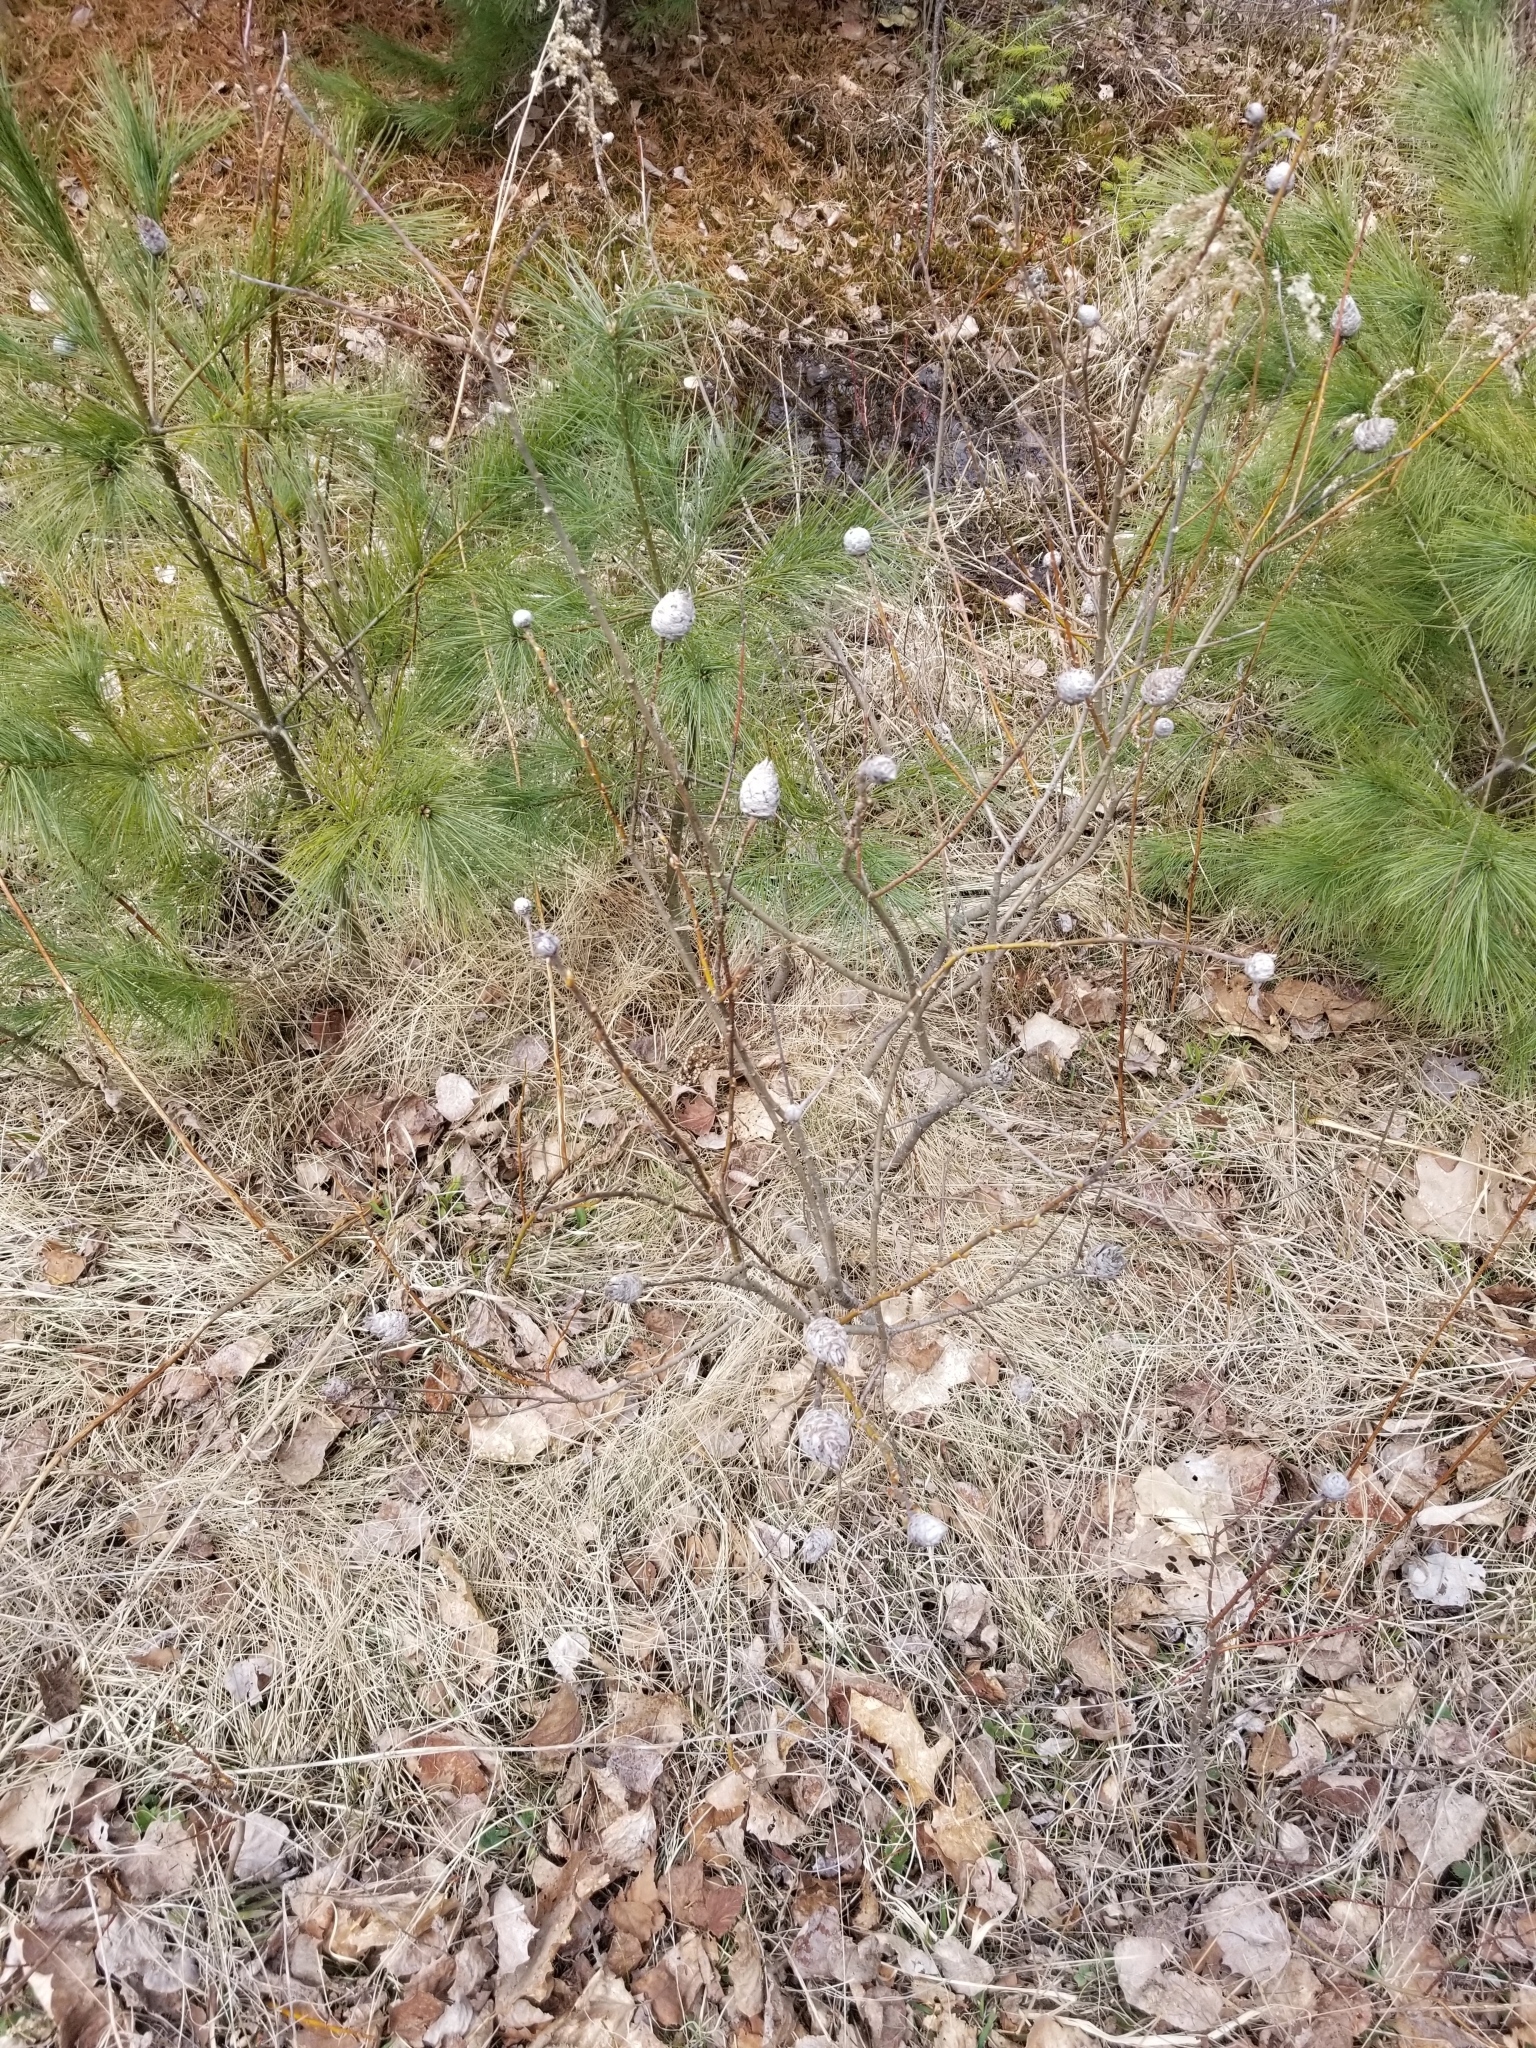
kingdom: Animalia
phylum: Arthropoda
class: Insecta
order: Diptera
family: Cecidomyiidae
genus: Rabdophaga
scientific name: Rabdophaga strobiloides
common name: Willow pinecone gall midge
